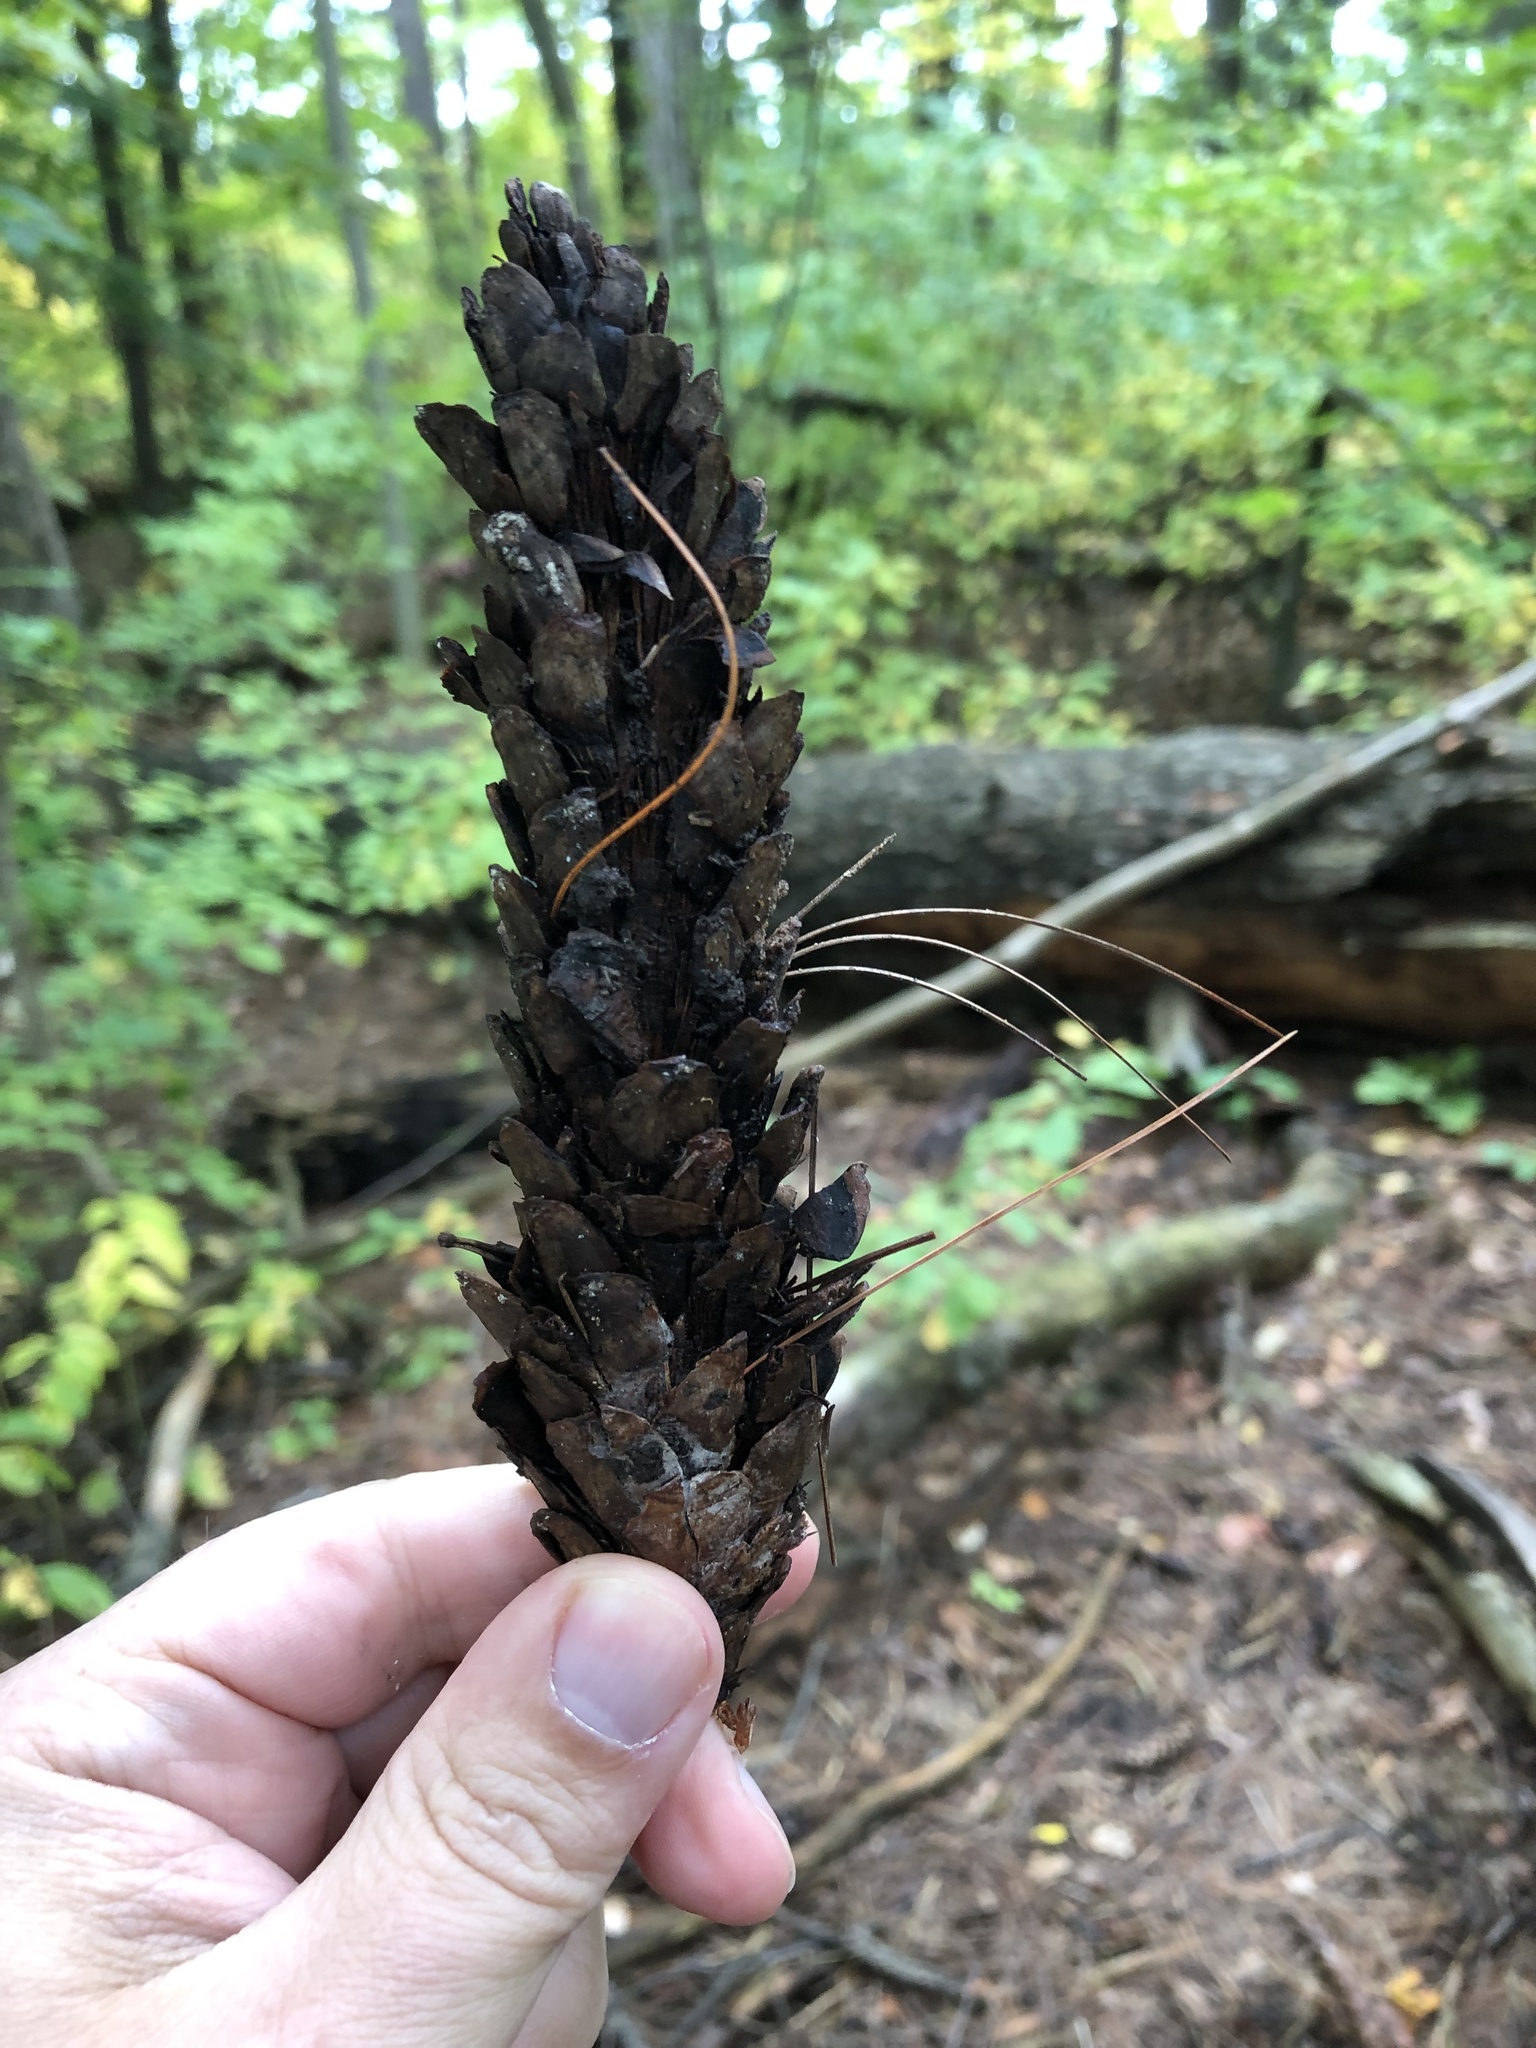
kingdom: Plantae
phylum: Tracheophyta
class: Pinopsida
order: Pinales
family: Pinaceae
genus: Pinus
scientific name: Pinus strobus
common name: Weymouth pine
